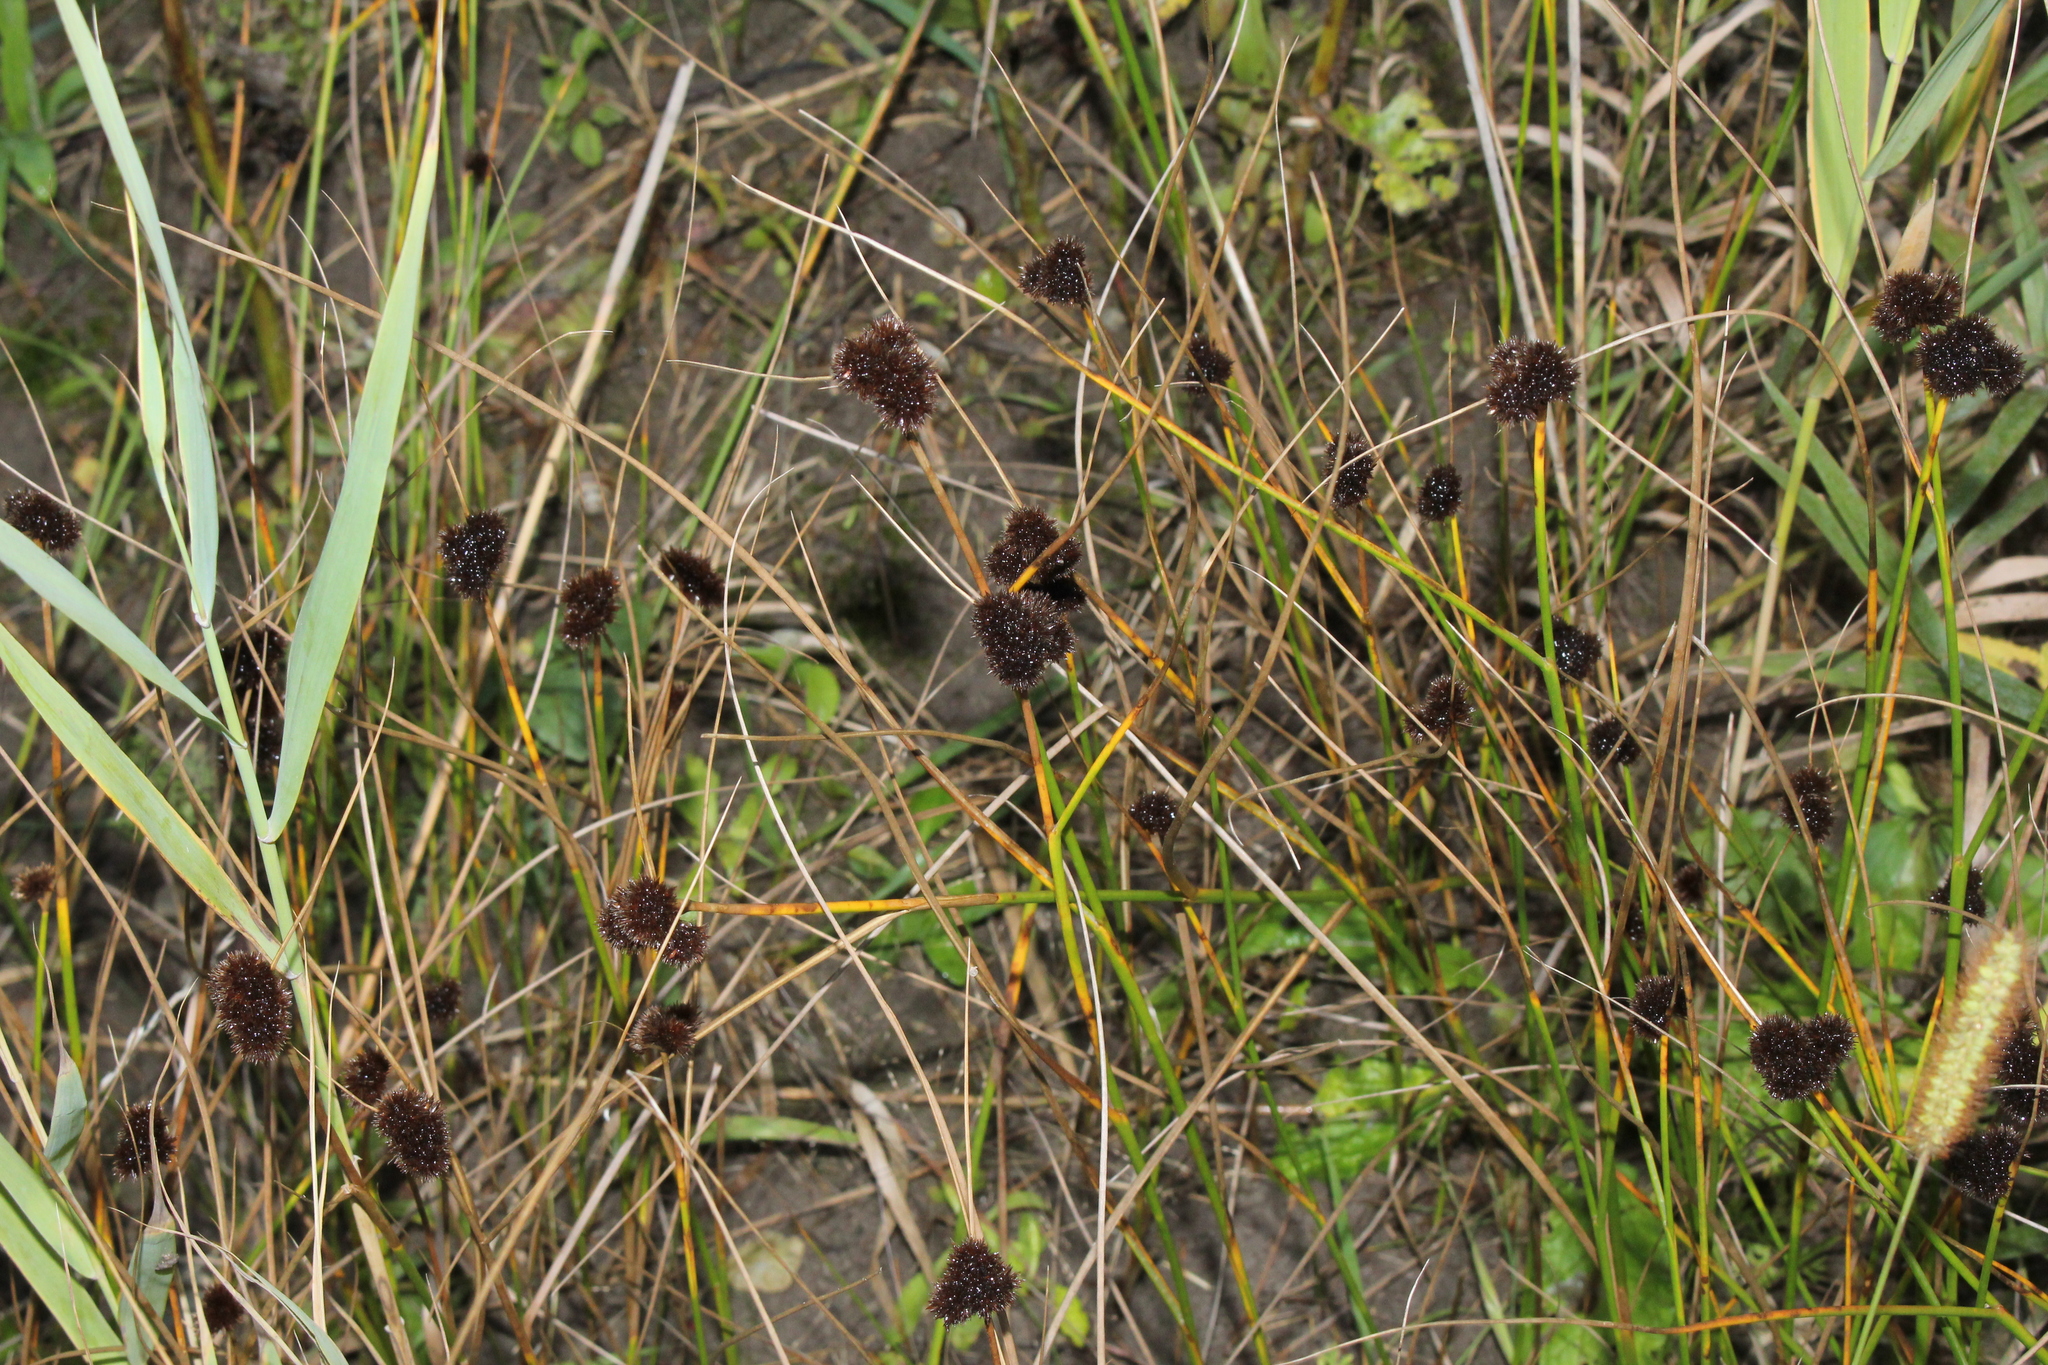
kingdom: Plantae
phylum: Tracheophyta
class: Liliopsida
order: Poales
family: Juncaceae
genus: Juncus
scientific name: Juncus torreyi
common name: Torrey's rush
